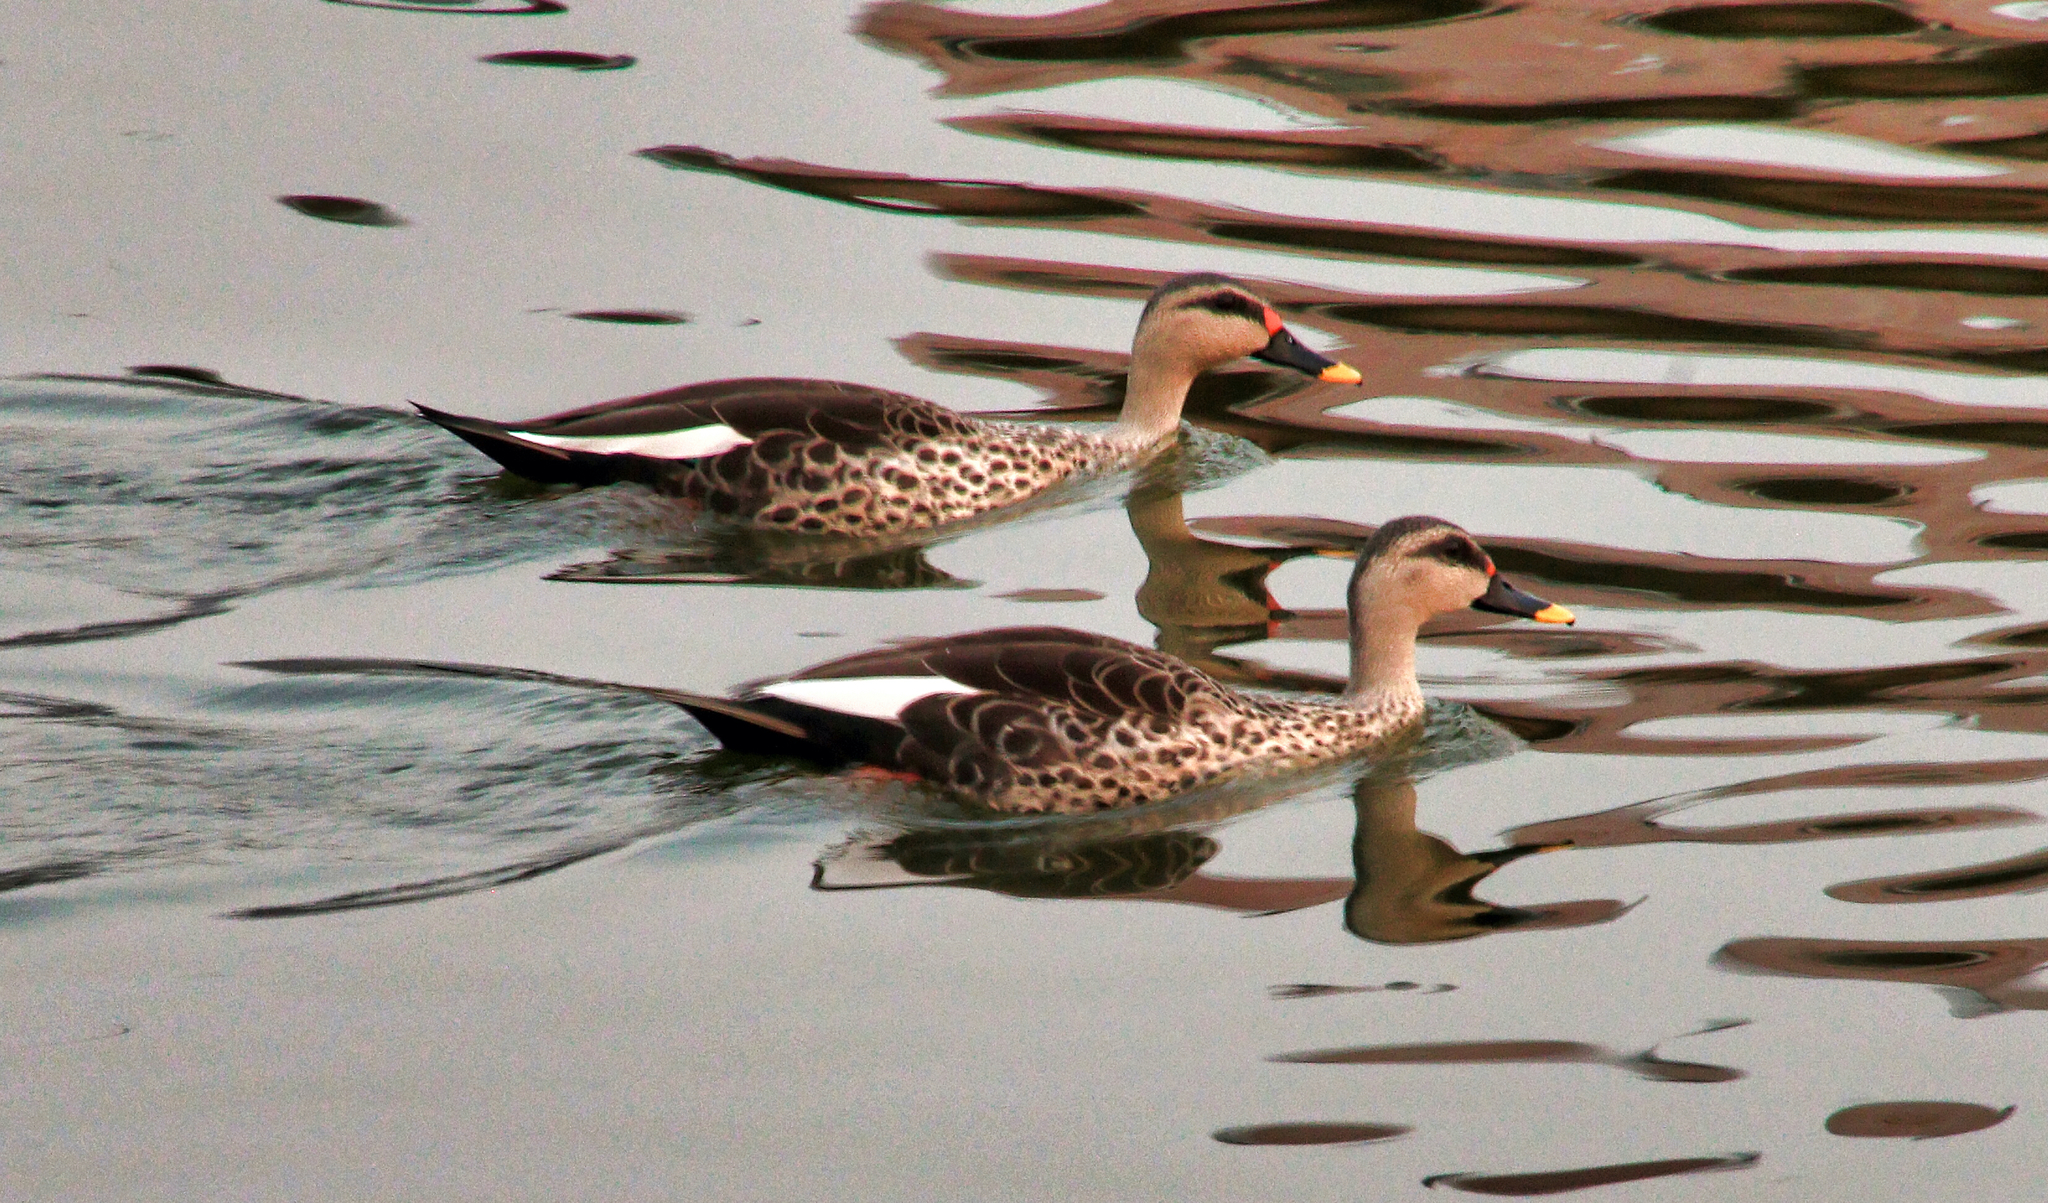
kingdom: Animalia
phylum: Chordata
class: Aves
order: Anseriformes
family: Anatidae
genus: Anas
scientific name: Anas poecilorhyncha
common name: Indian spot-billed duck
